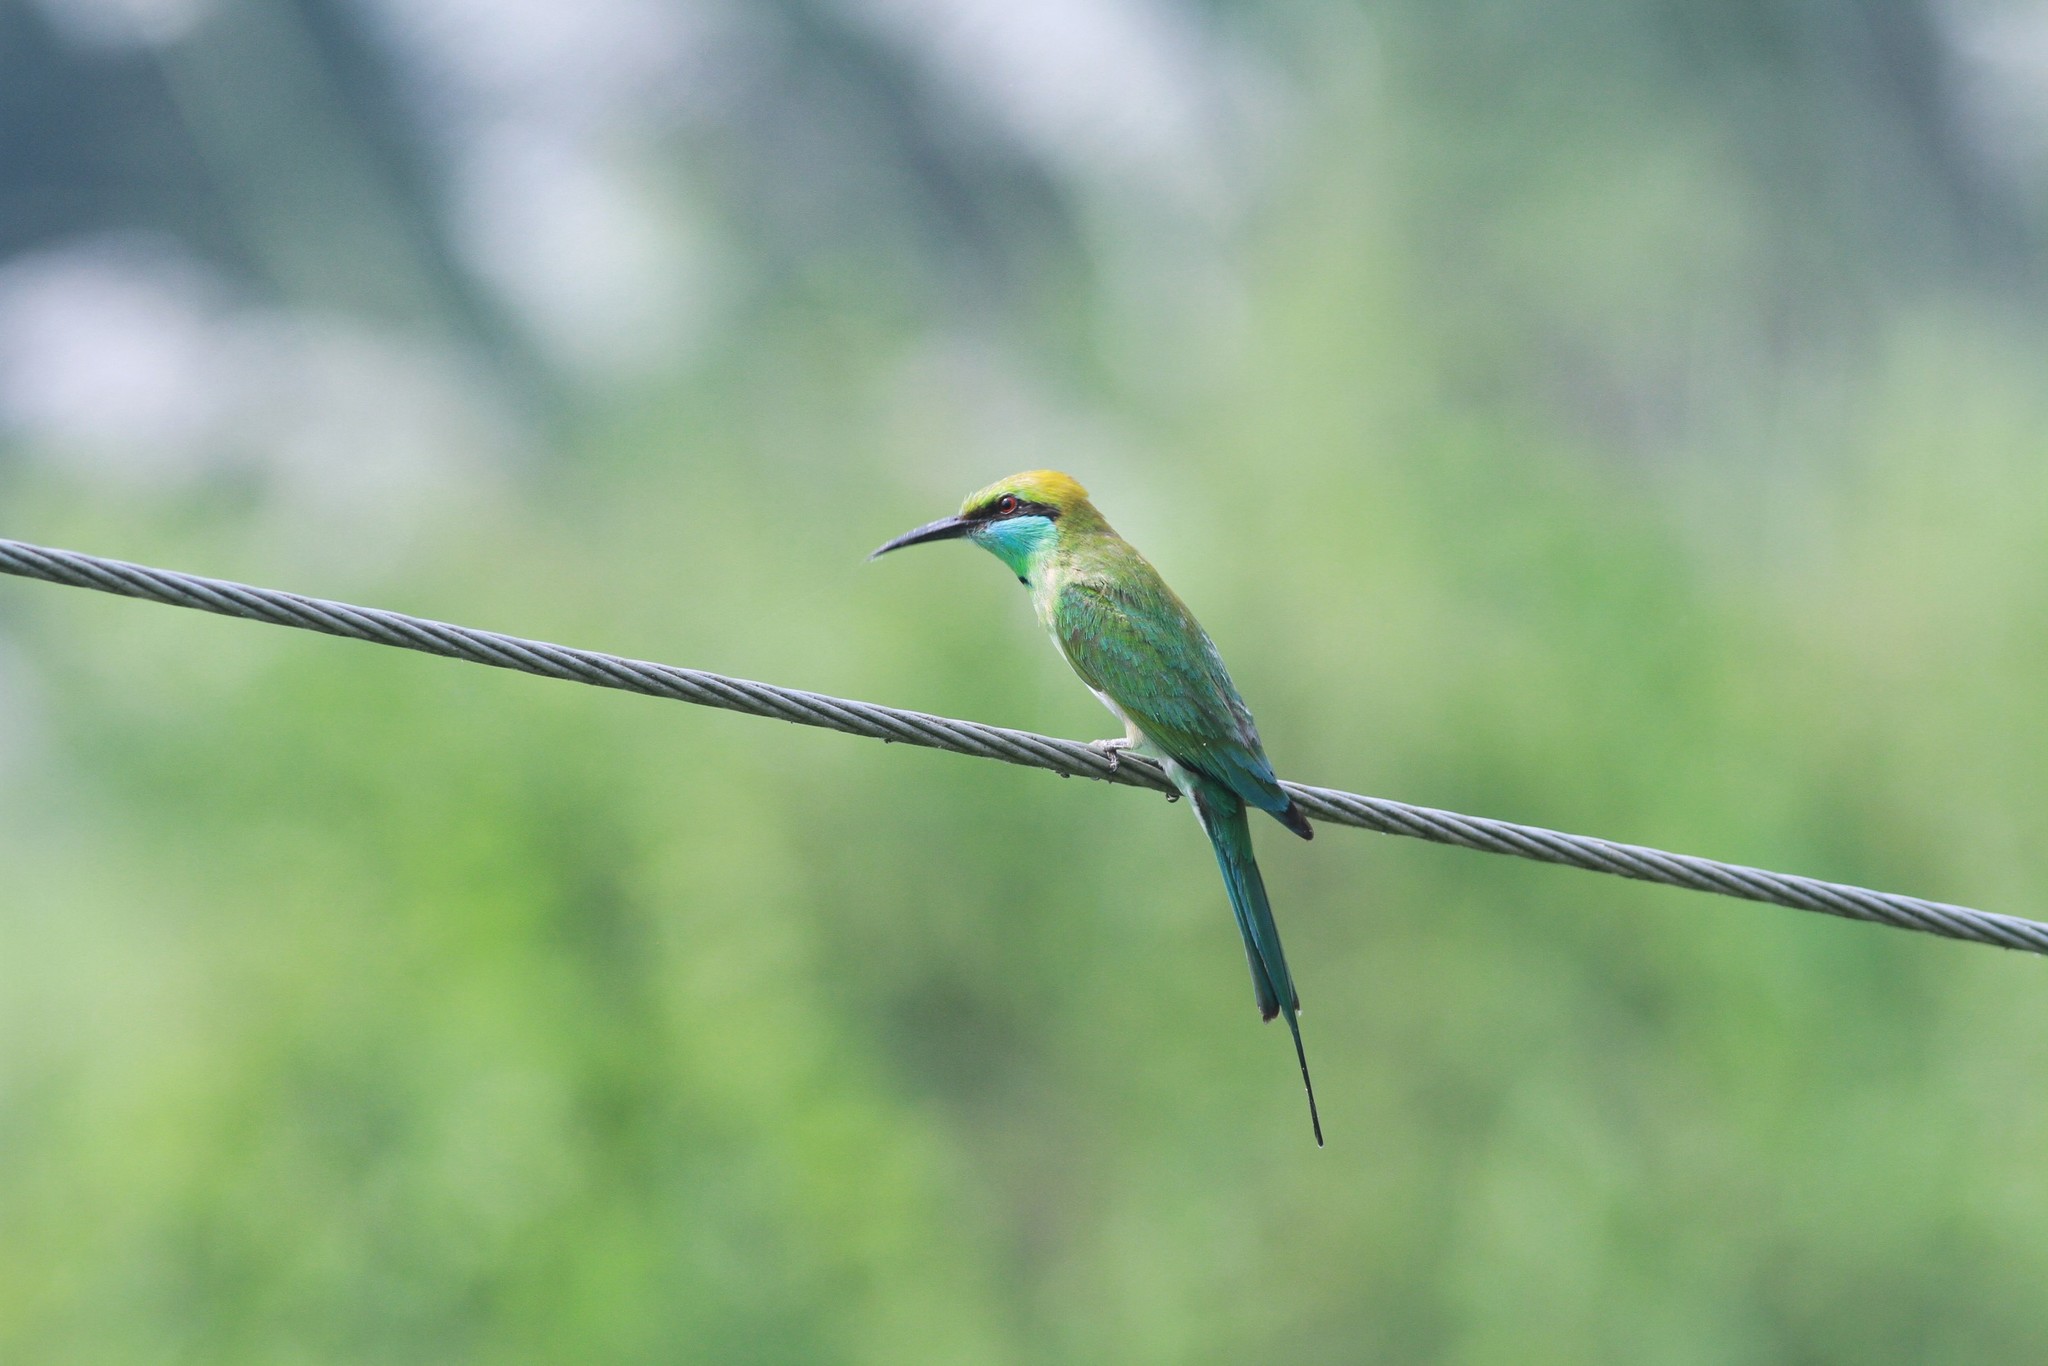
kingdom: Animalia
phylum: Chordata
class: Aves
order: Coraciiformes
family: Meropidae
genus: Merops
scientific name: Merops orientalis
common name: Green bee-eater
